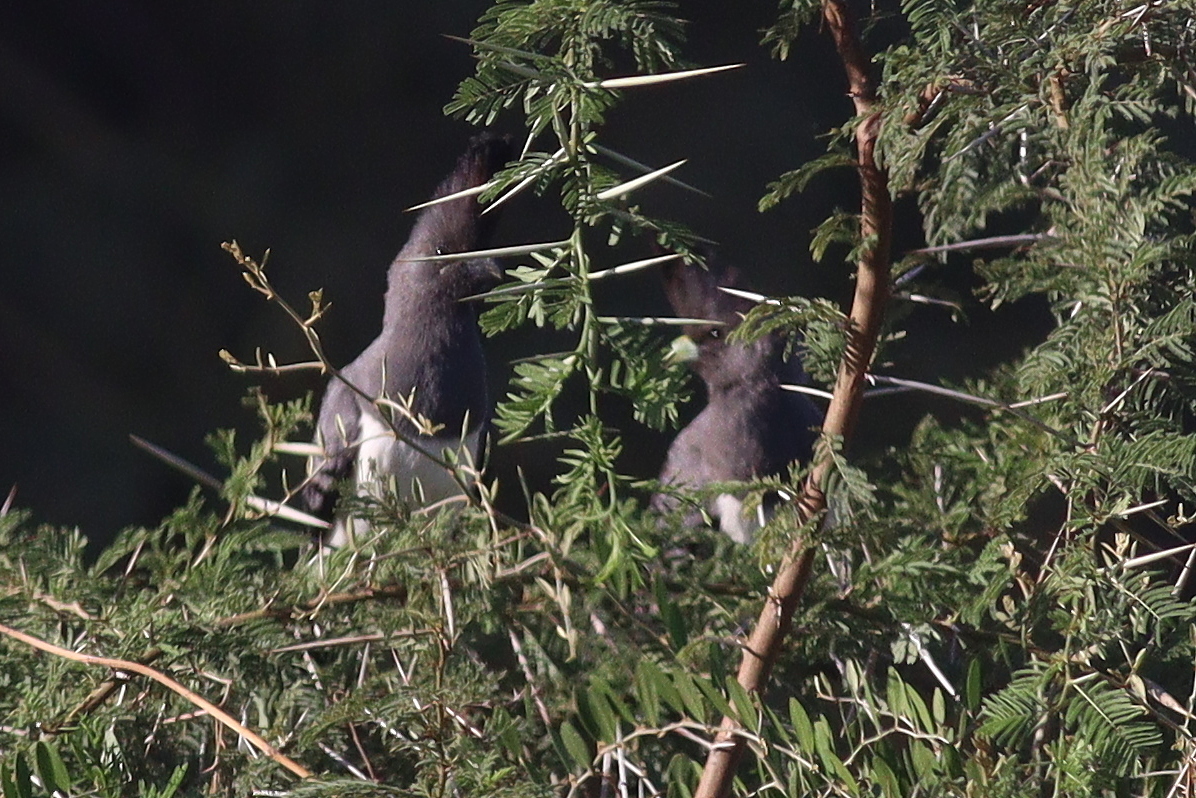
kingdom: Animalia
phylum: Chordata
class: Aves
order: Musophagiformes
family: Musophagidae
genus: Corythaixoides
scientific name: Corythaixoides leucogaster
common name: White-bellied go-away-bird
